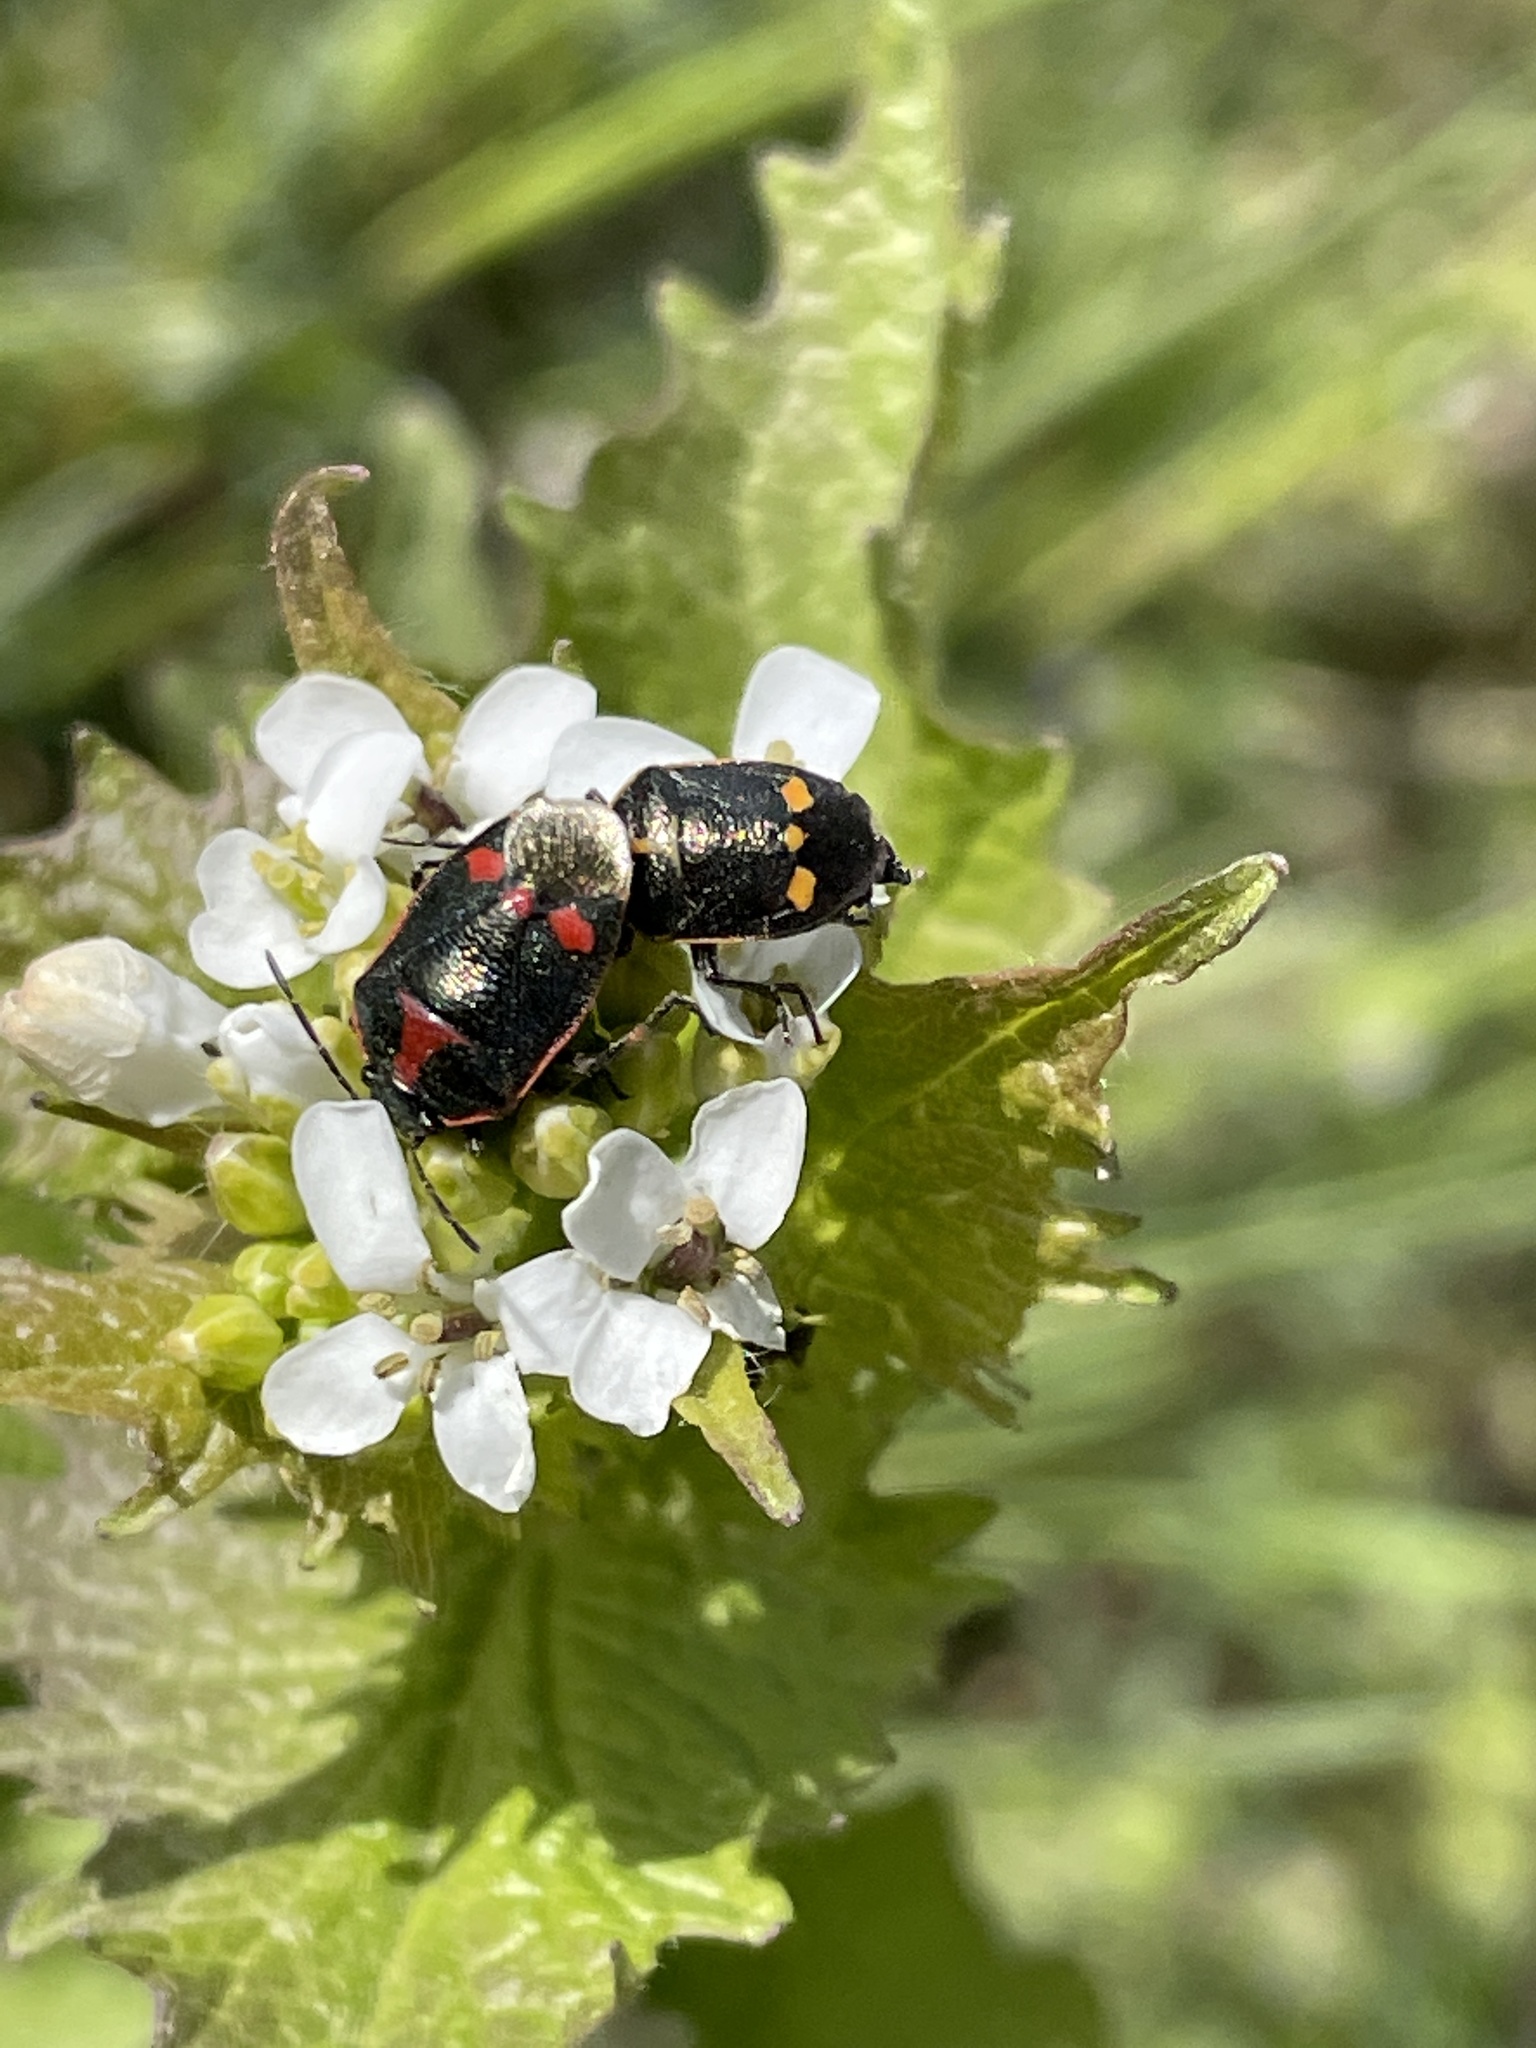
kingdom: Animalia
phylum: Arthropoda
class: Insecta
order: Hemiptera
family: Pentatomidae
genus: Eurydema
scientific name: Eurydema oleracea
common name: Cabbage bug
